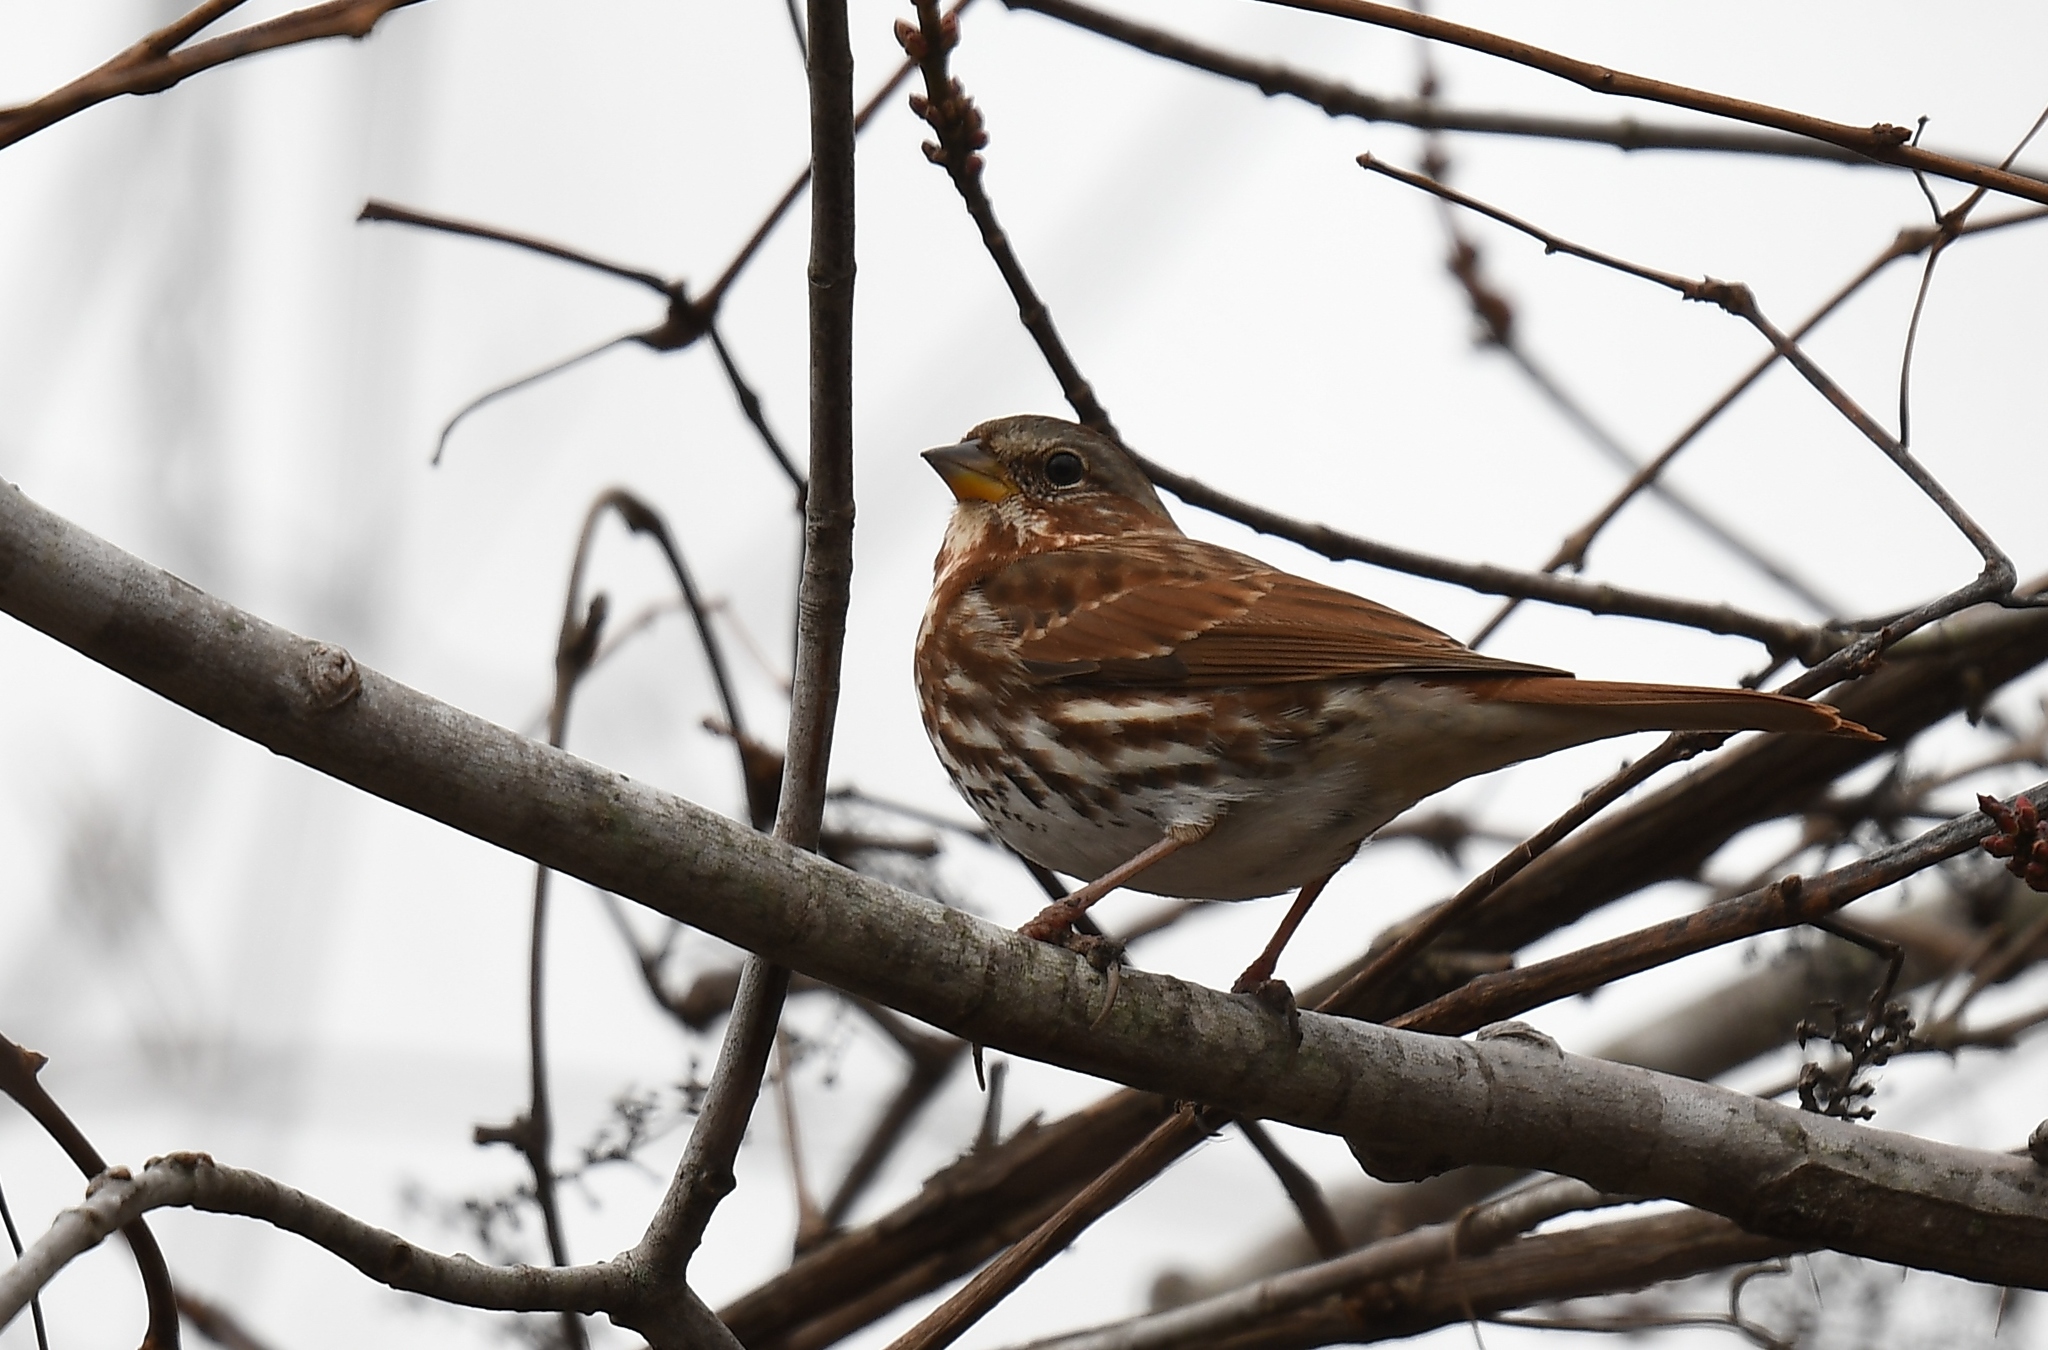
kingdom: Animalia
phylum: Chordata
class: Aves
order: Passeriformes
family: Passerellidae
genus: Passerella
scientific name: Passerella iliaca
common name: Fox sparrow
